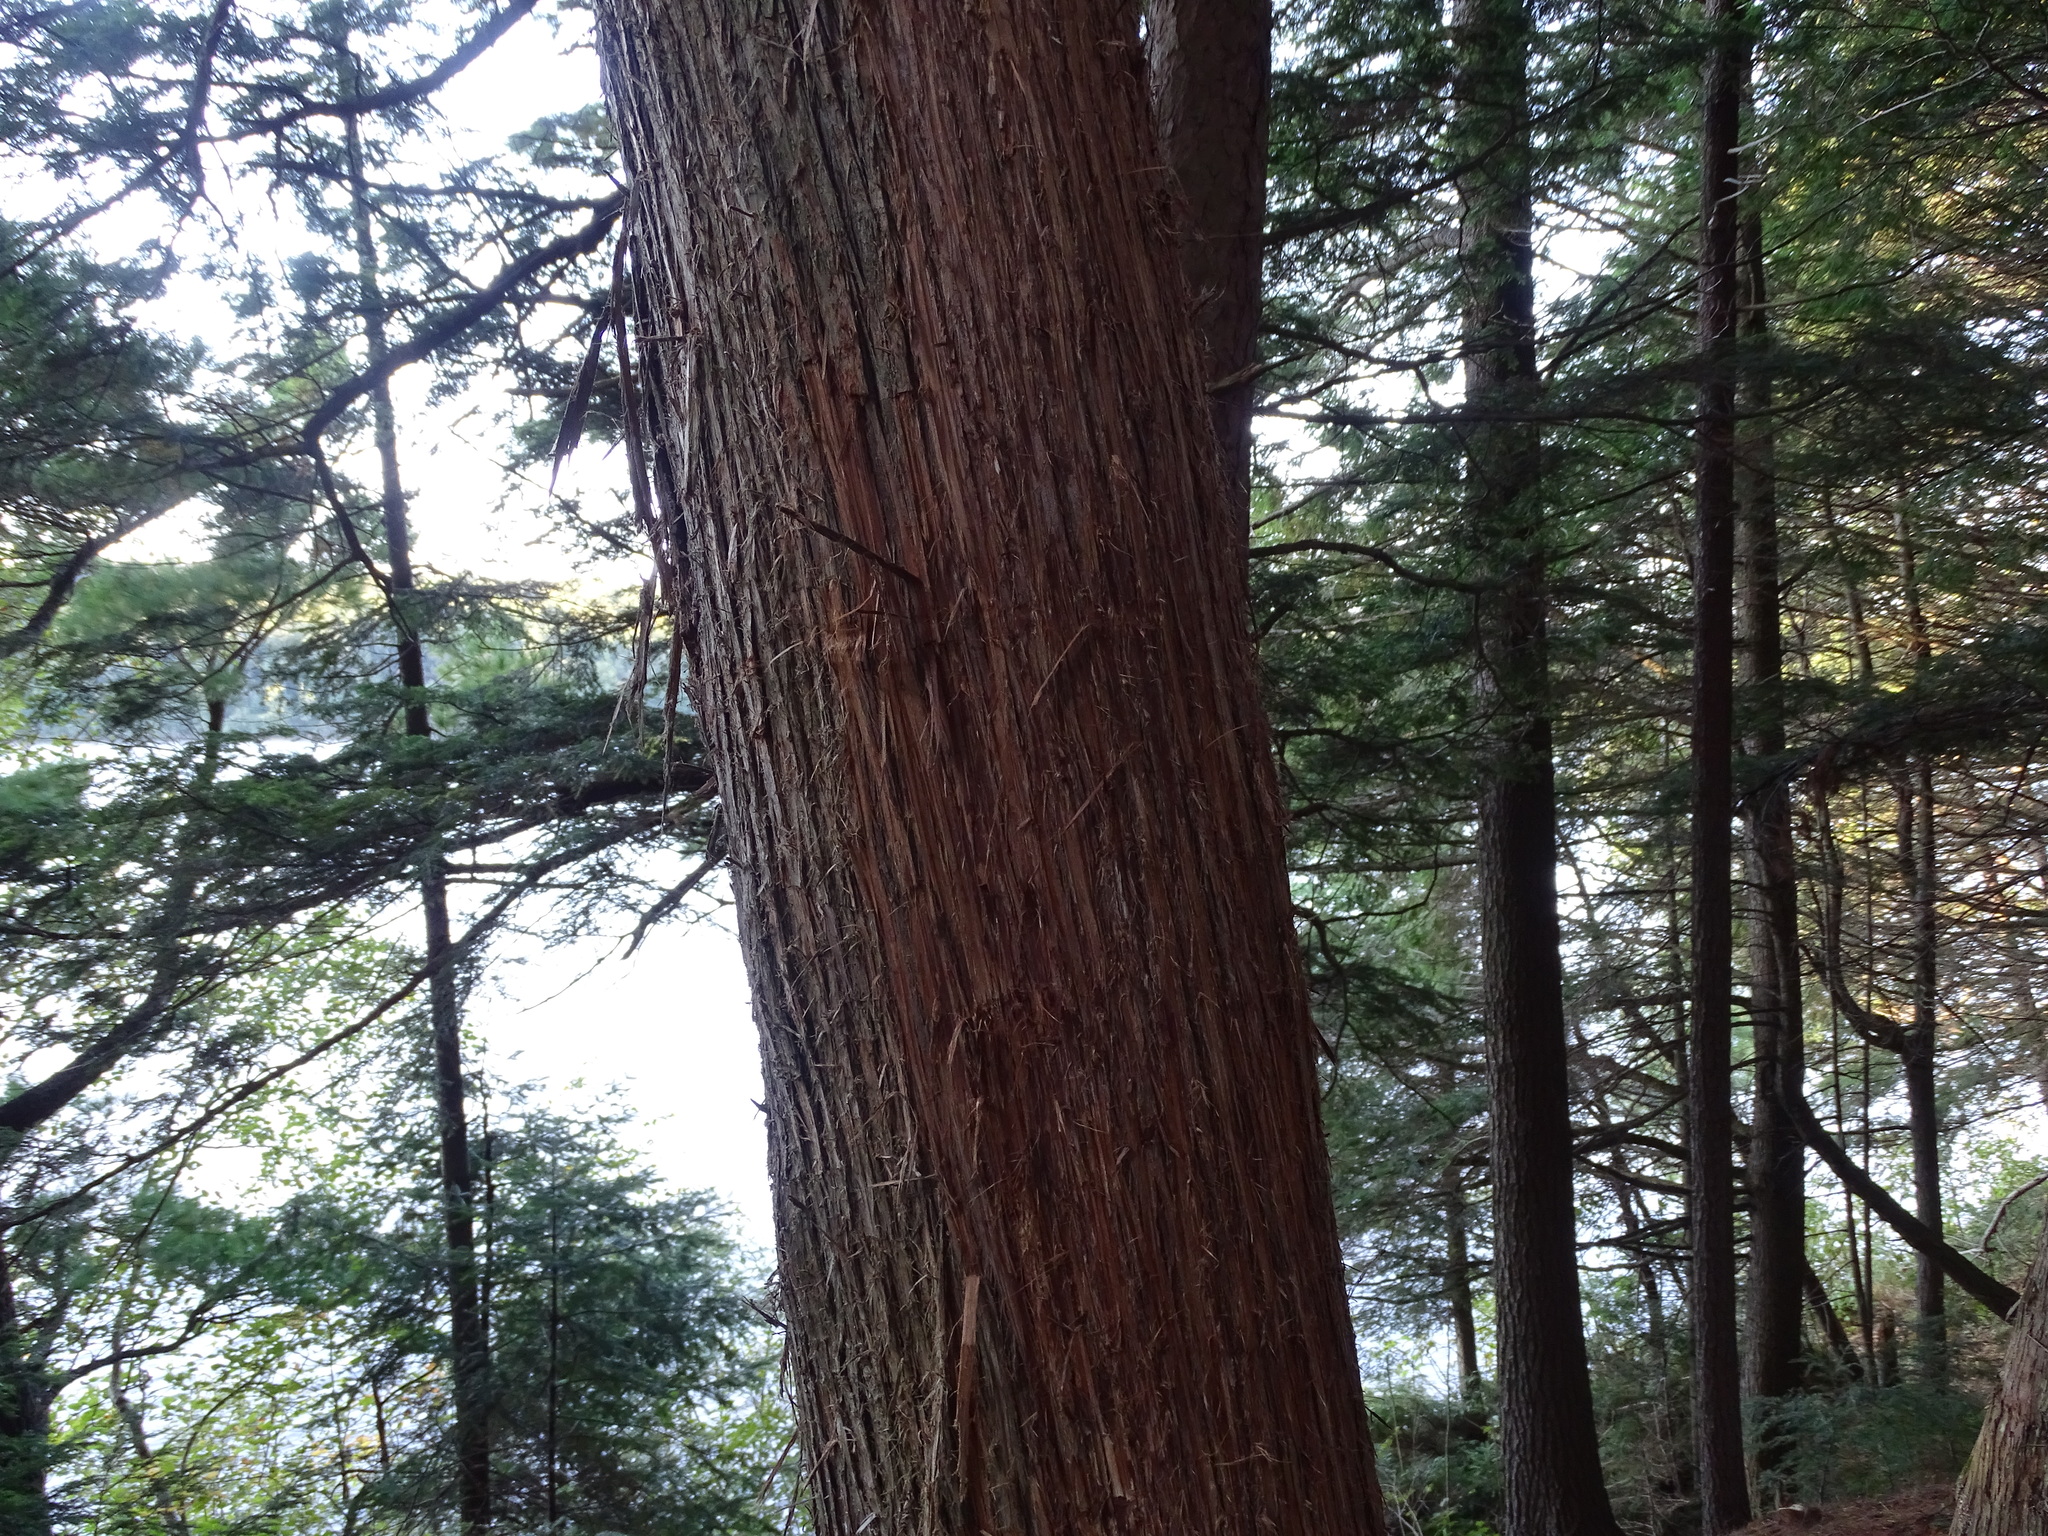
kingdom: Plantae
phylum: Tracheophyta
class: Pinopsida
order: Pinales
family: Cupressaceae
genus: Thuja
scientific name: Thuja occidentalis
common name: Northern white-cedar
